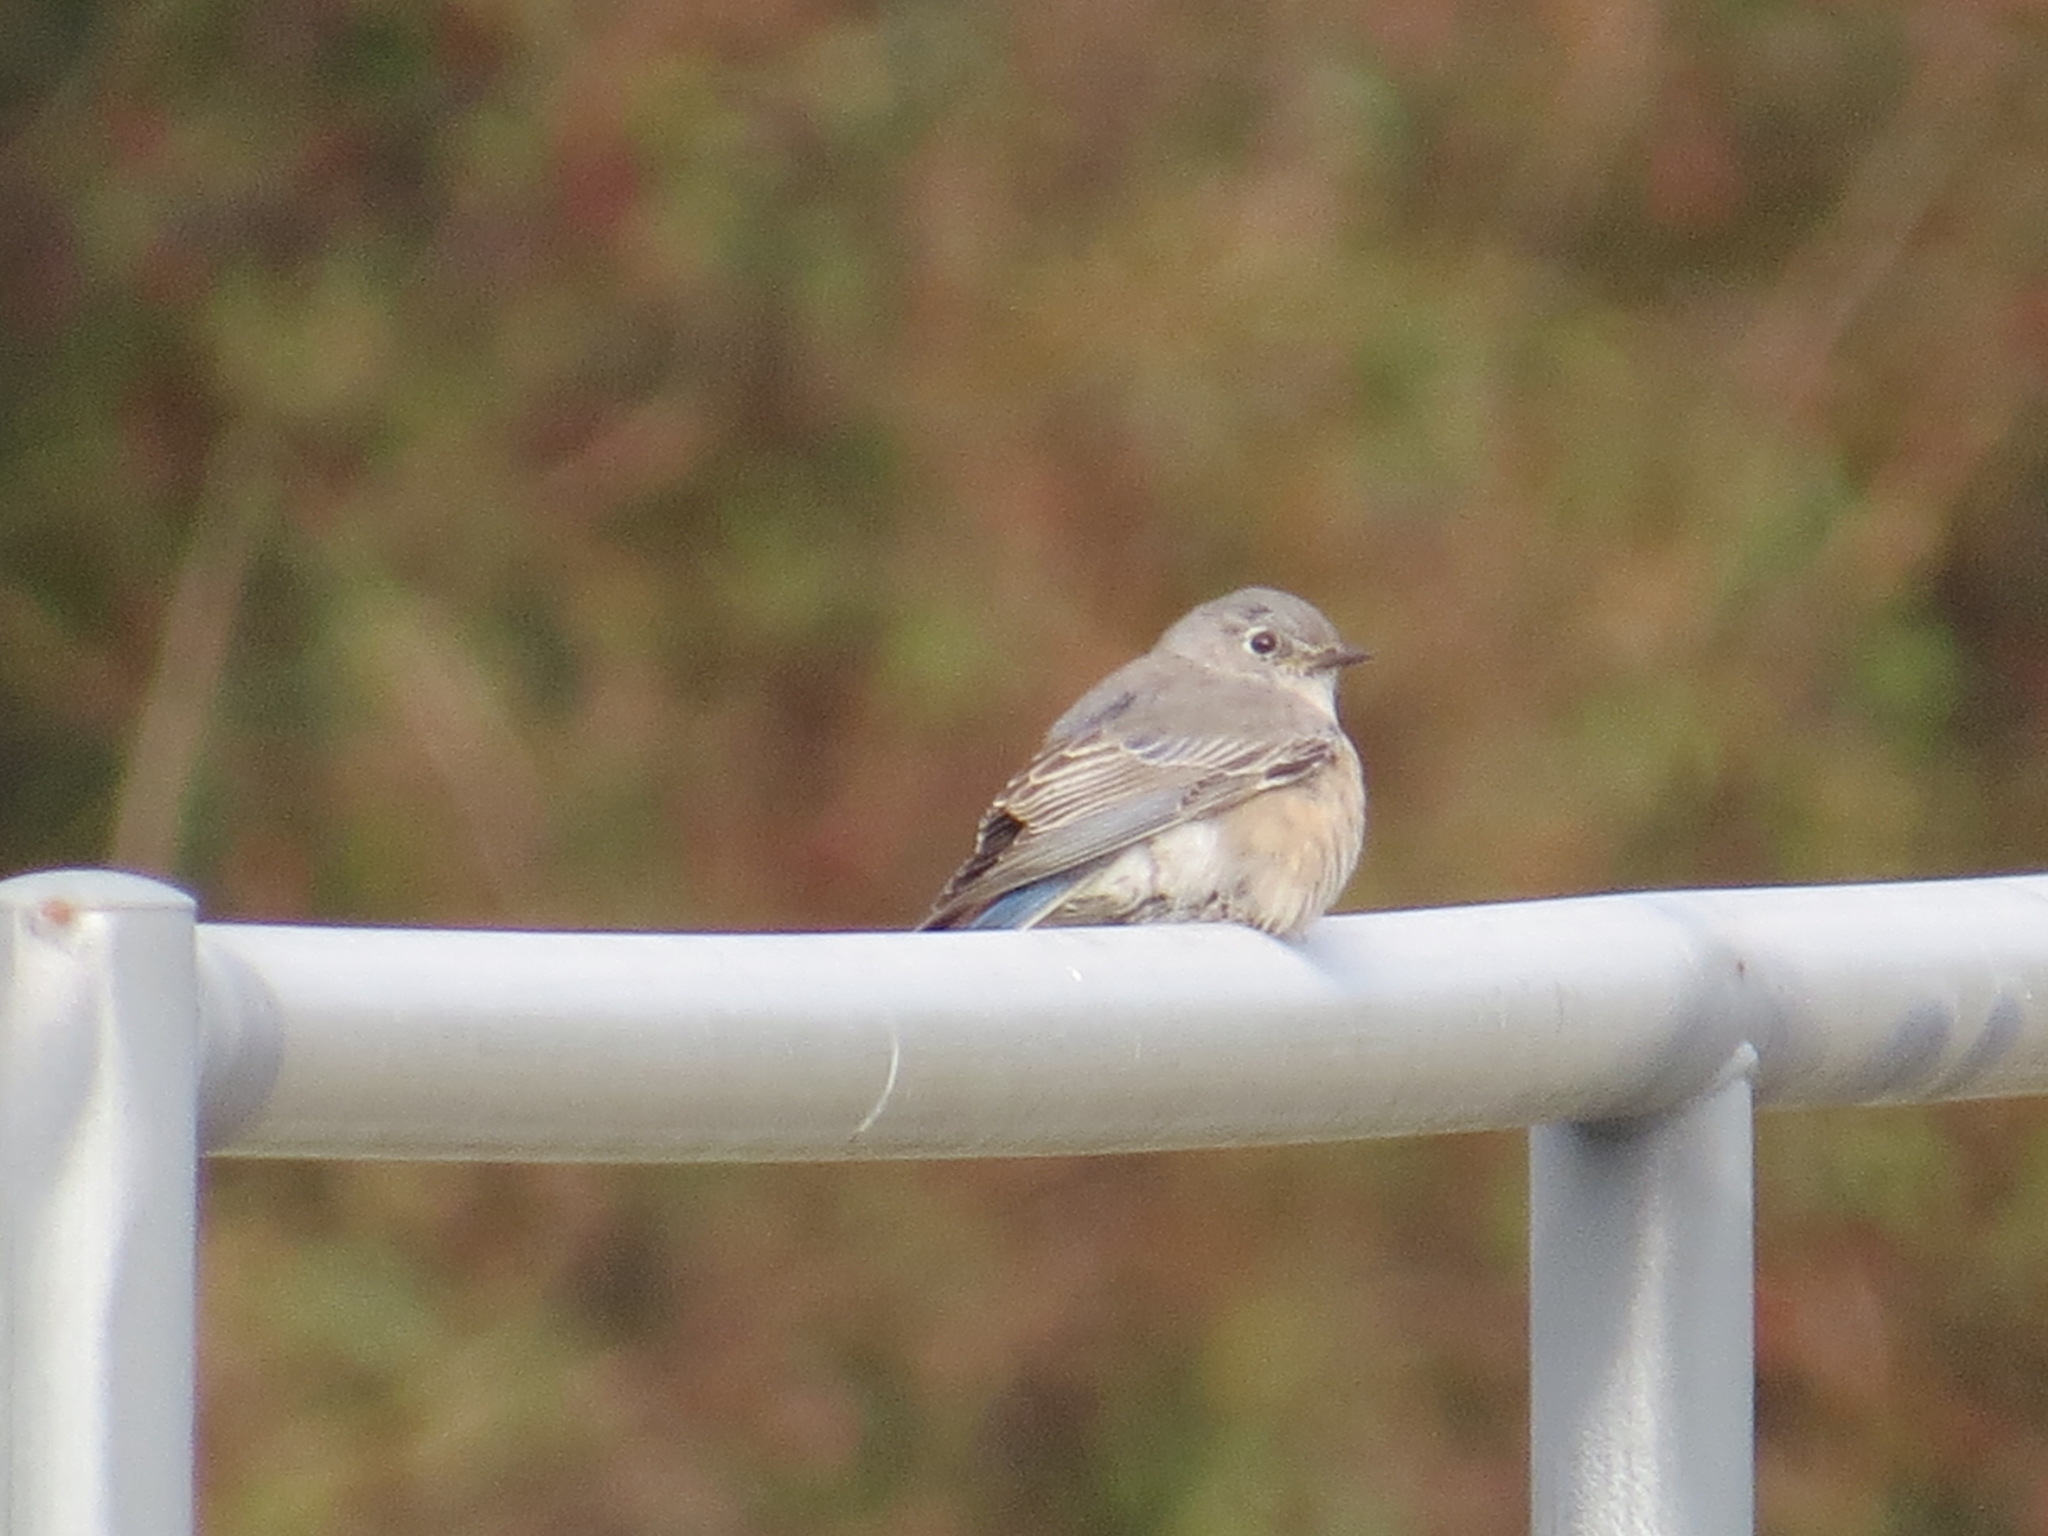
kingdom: Animalia
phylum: Chordata
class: Aves
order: Passeriformes
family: Turdidae
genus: Sialia
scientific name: Sialia mexicana
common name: Western bluebird
